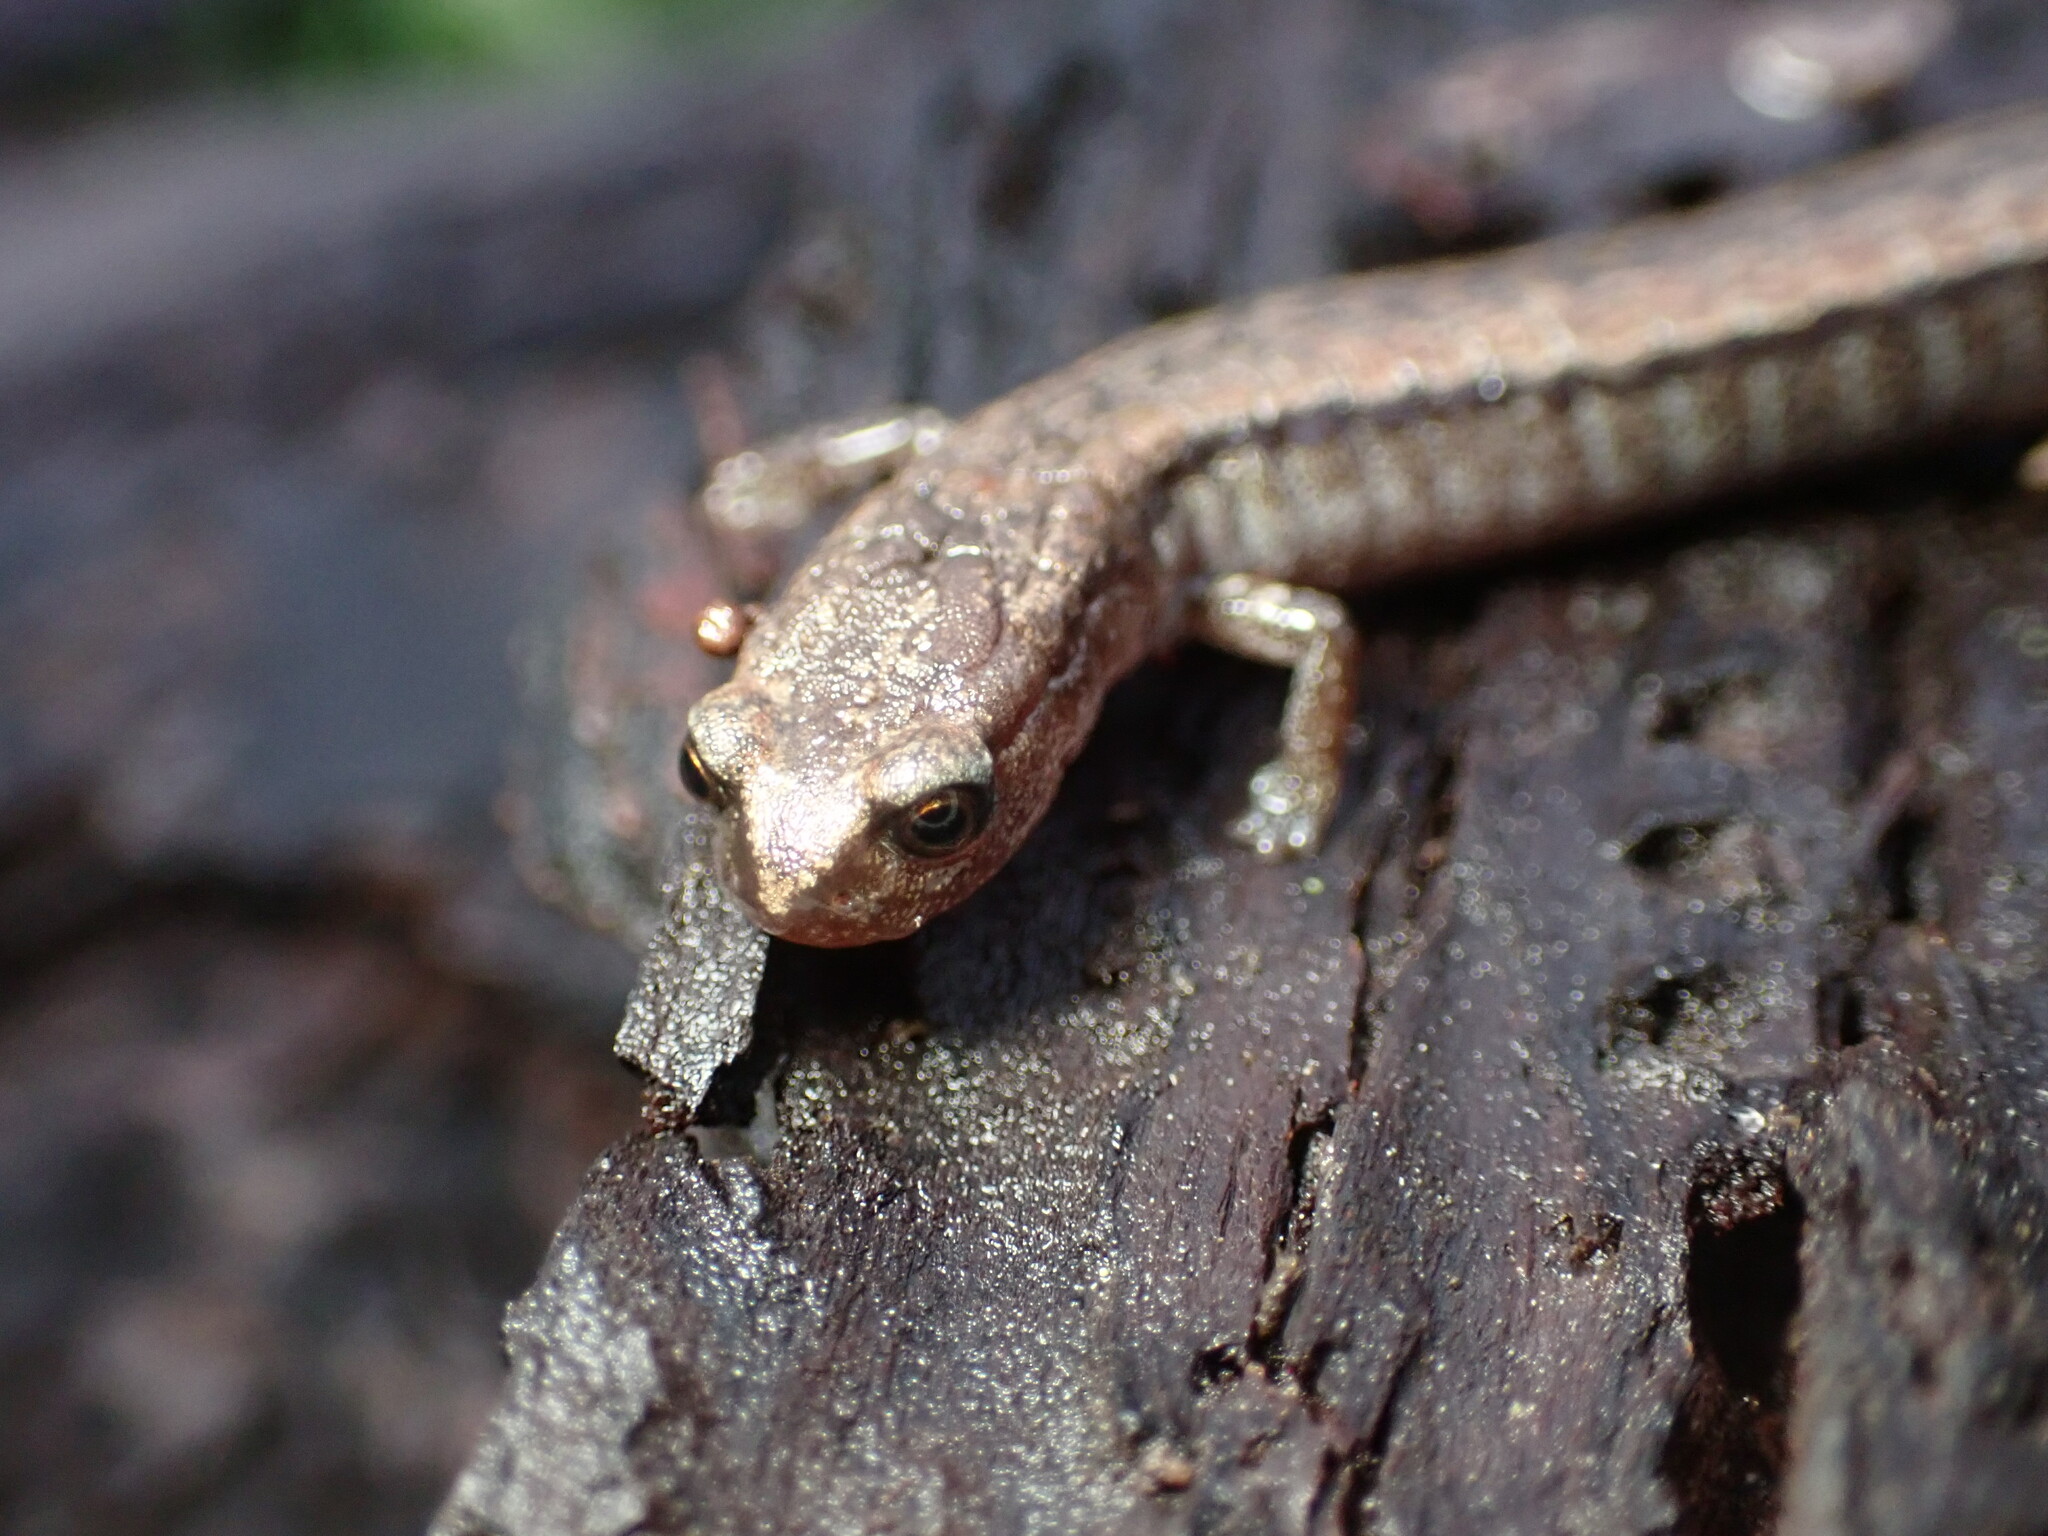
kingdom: Animalia
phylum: Chordata
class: Amphibia
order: Caudata
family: Plethodontidae
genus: Batrachoseps
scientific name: Batrachoseps attenuatus
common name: California slender salamander
